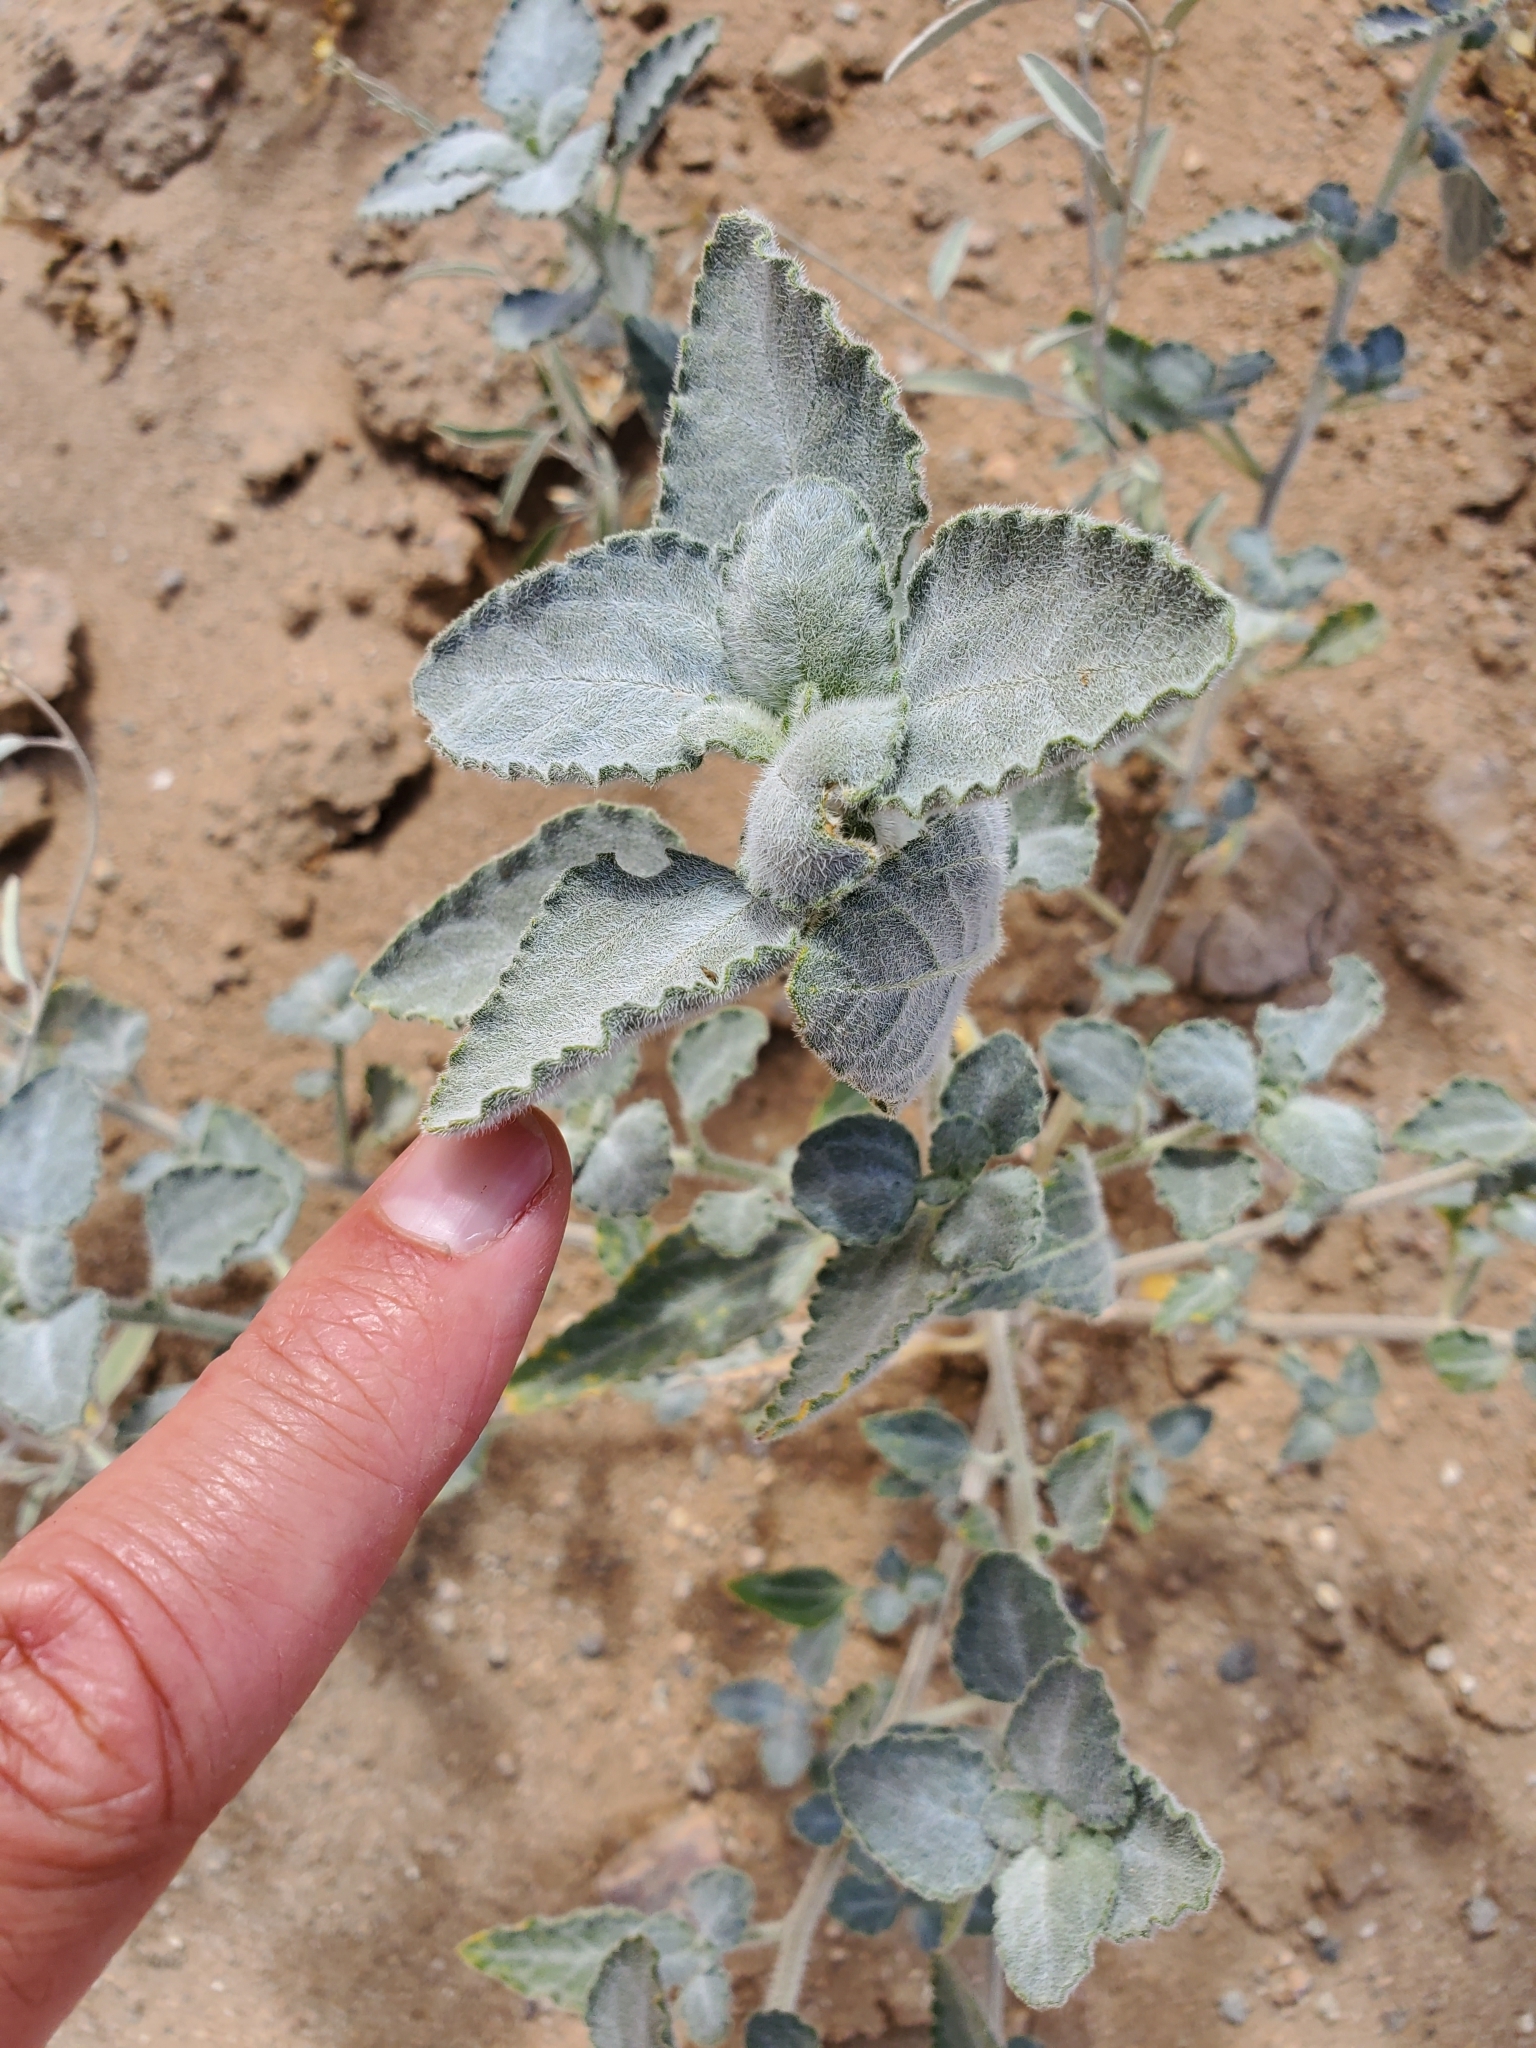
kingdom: Plantae
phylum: Tracheophyta
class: Magnoliopsida
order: Asterales
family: Asteraceae
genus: Dicoria
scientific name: Dicoria canescens
